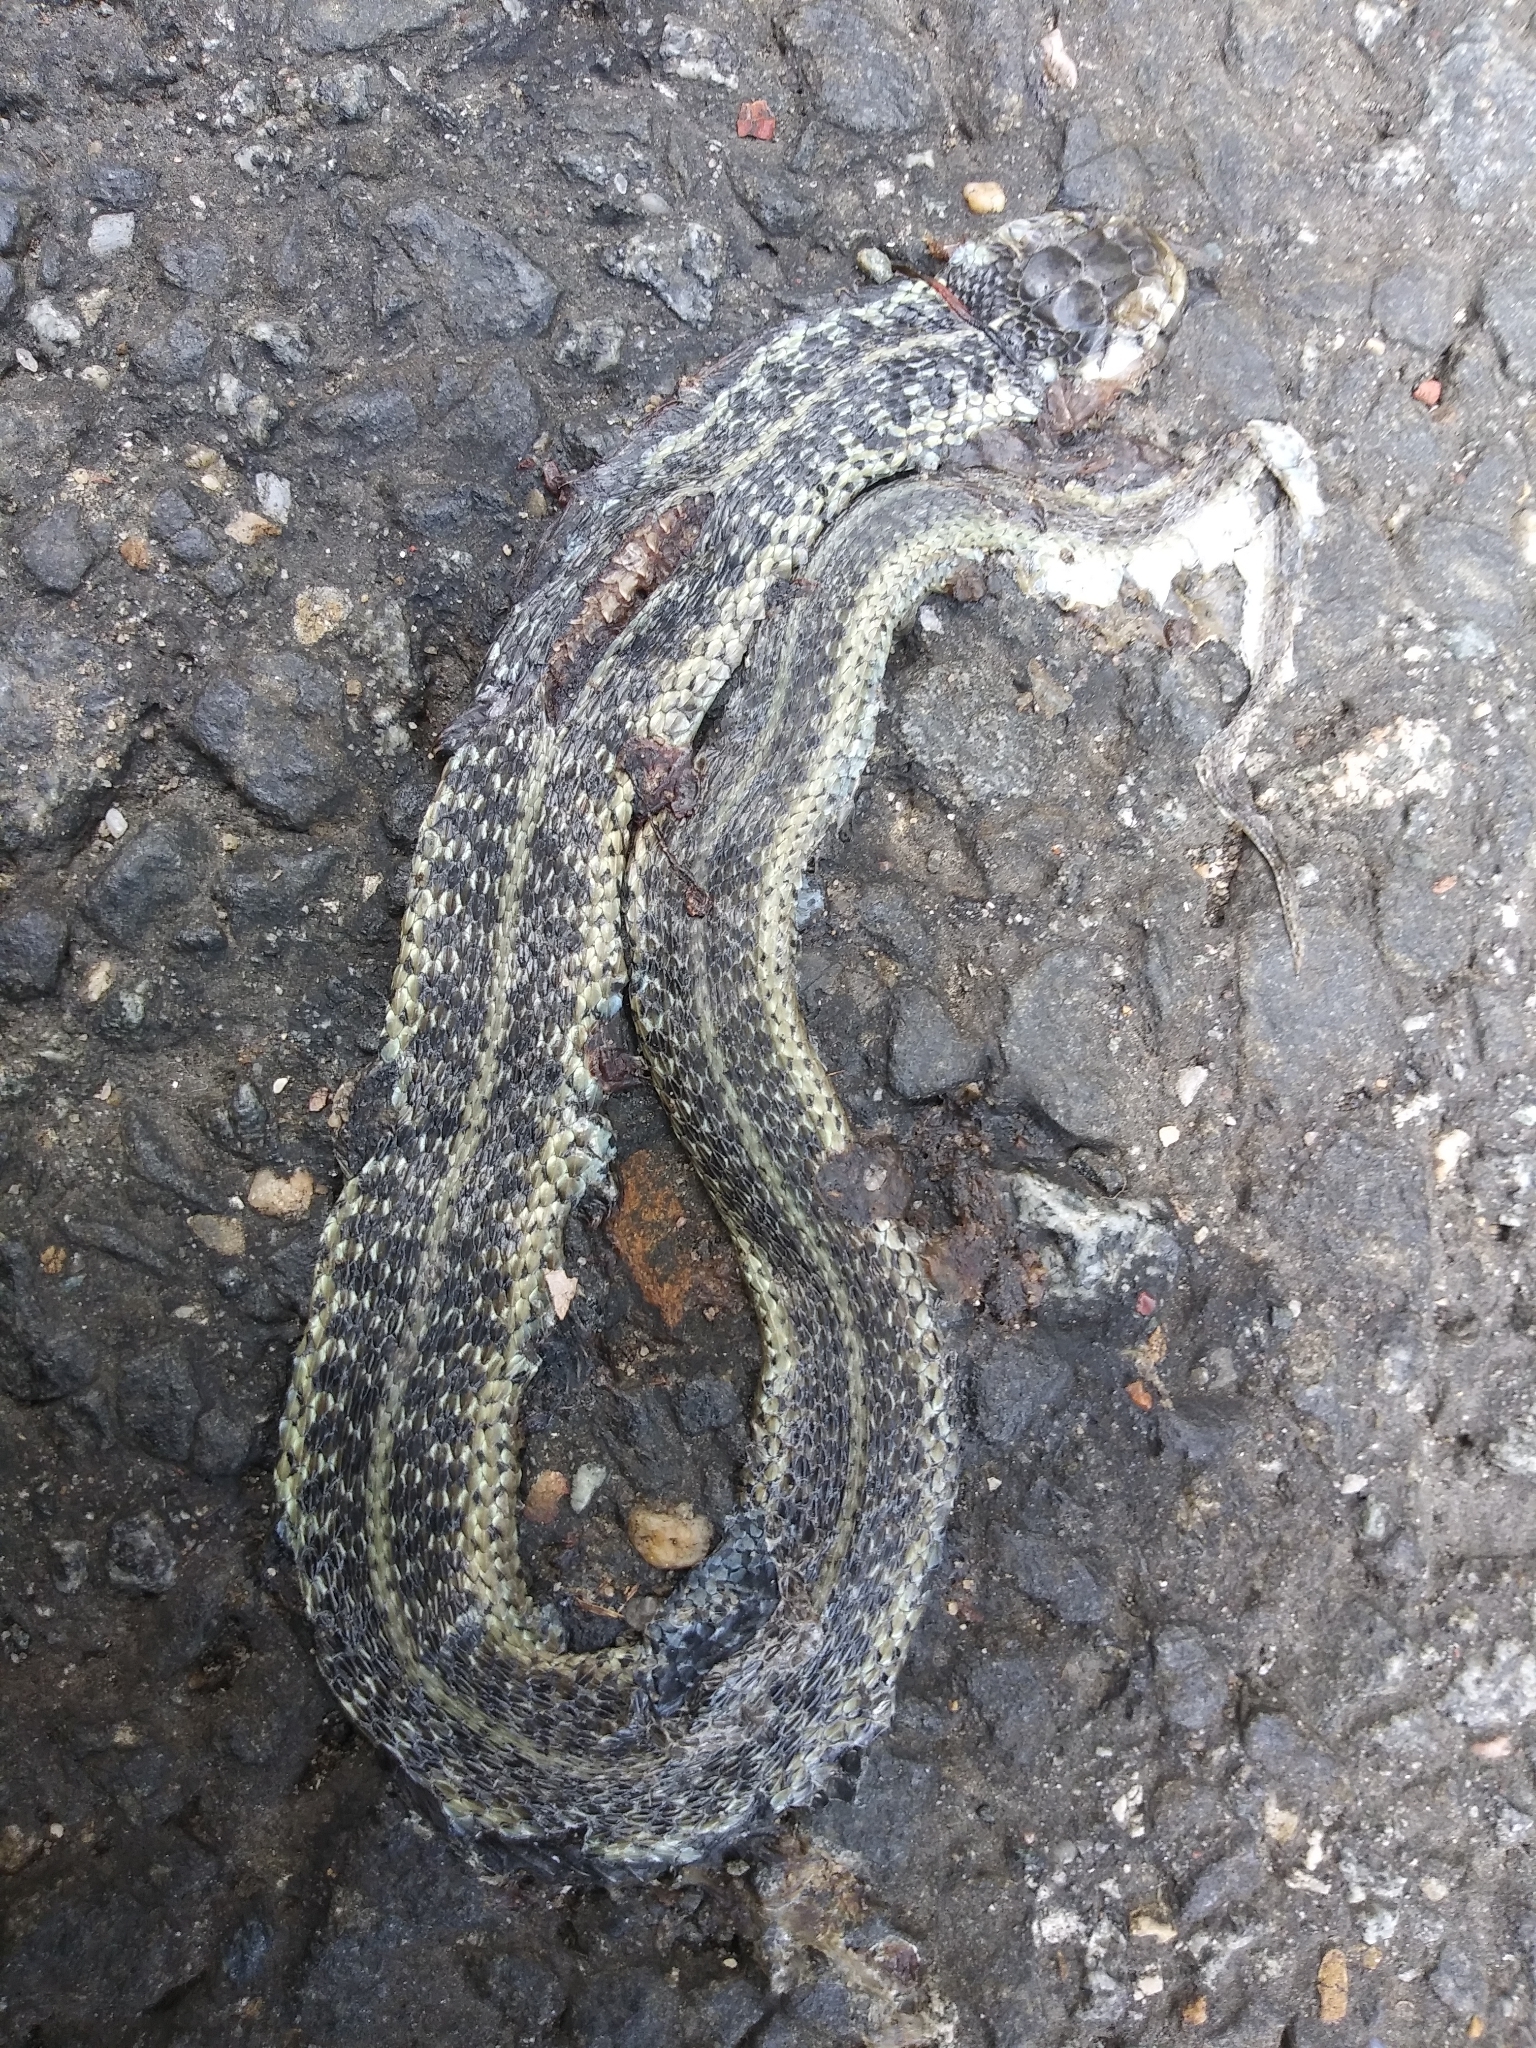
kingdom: Animalia
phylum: Chordata
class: Squamata
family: Colubridae
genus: Thamnophis
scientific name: Thamnophis sirtalis
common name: Common garter snake
